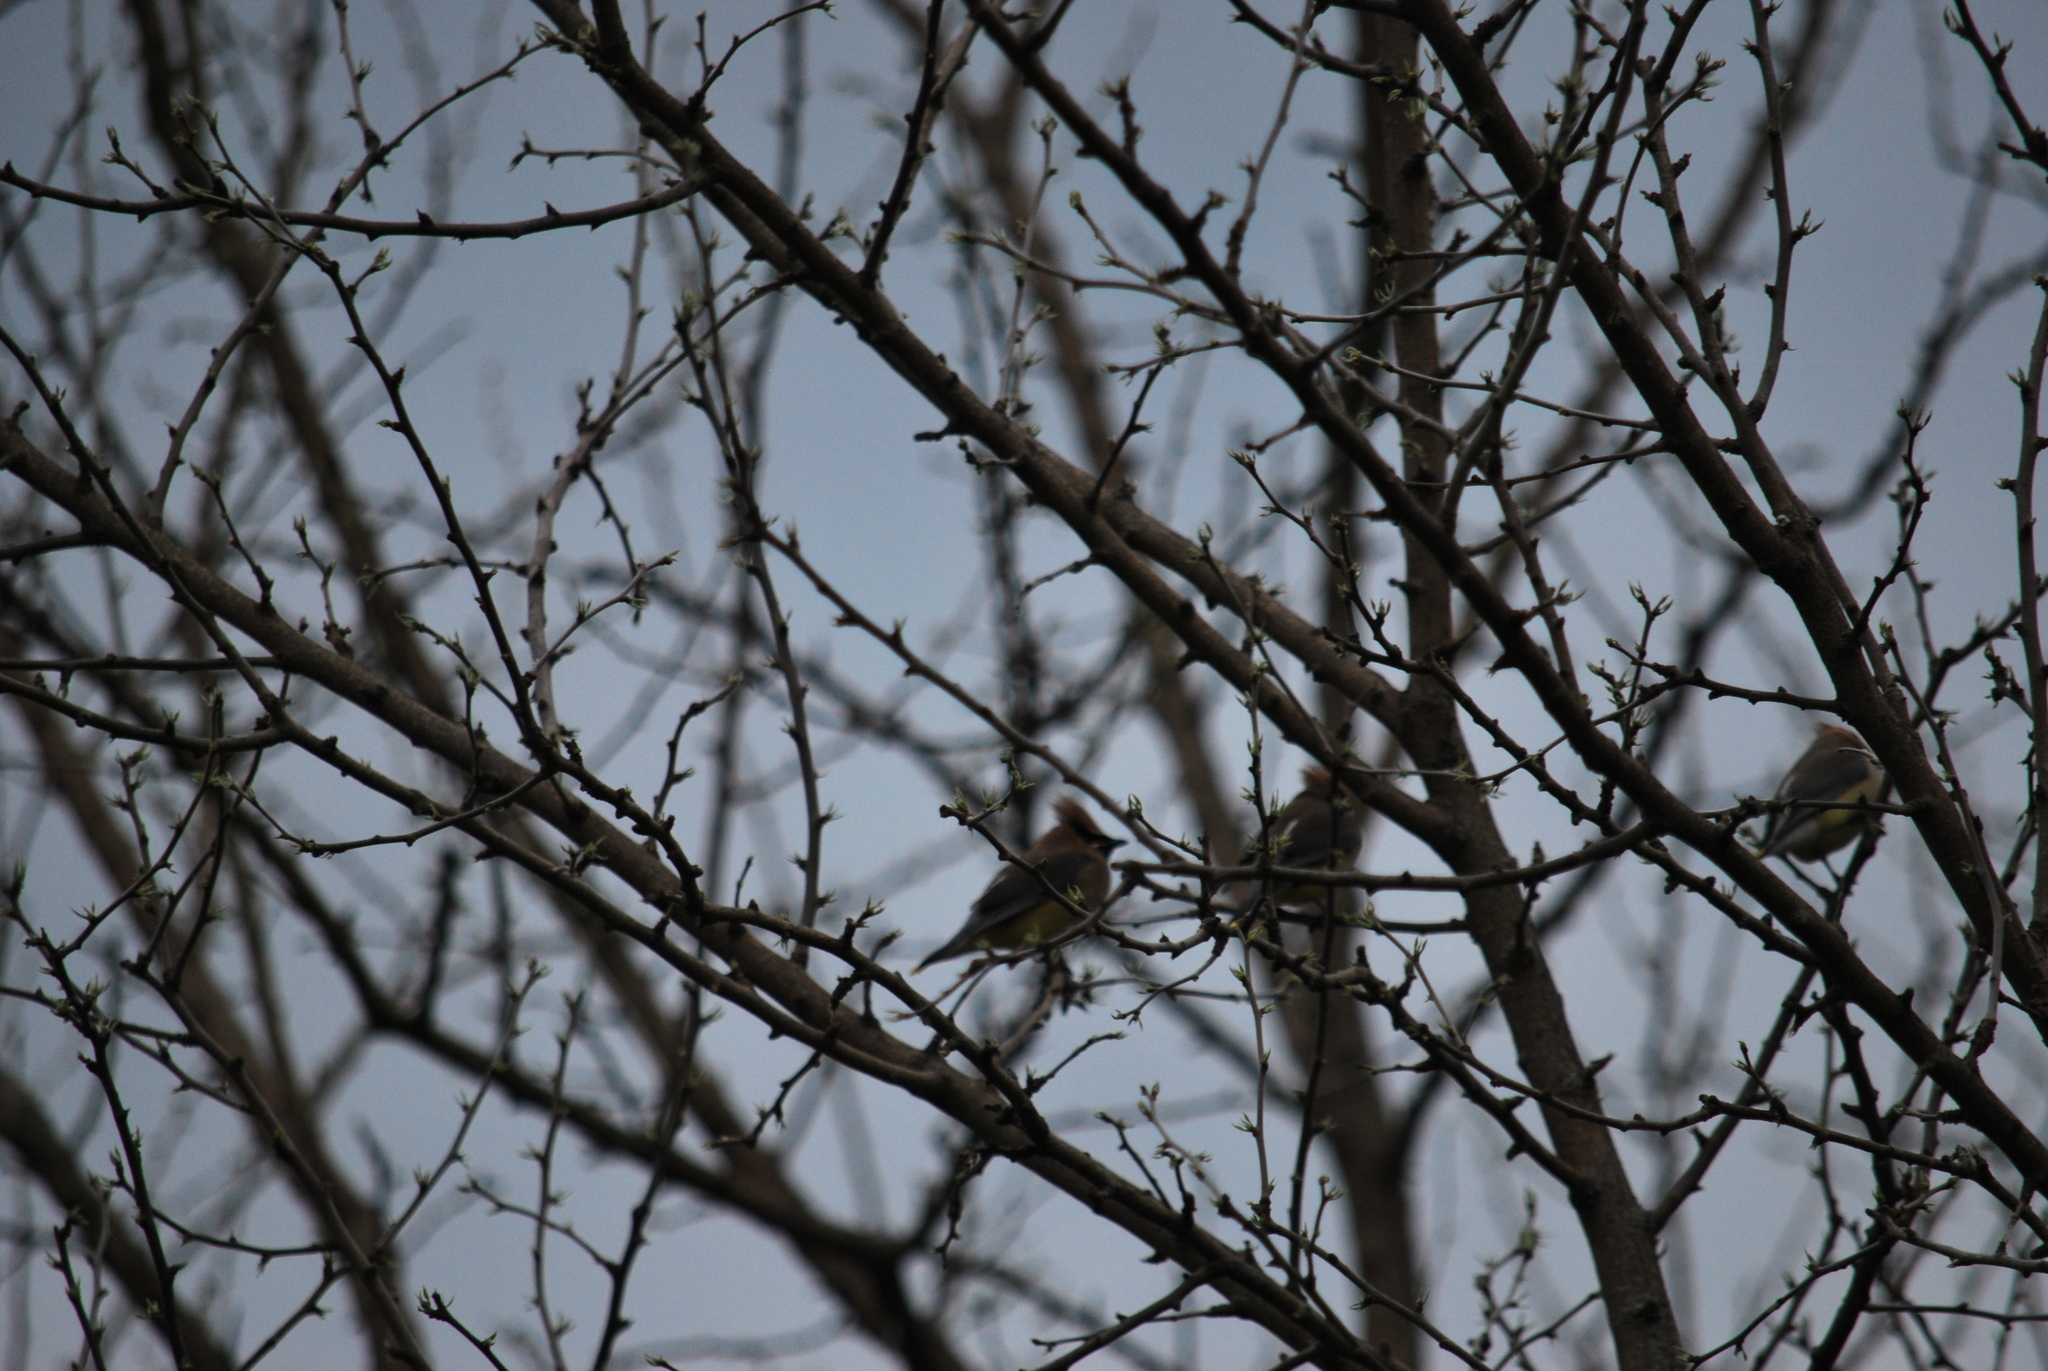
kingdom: Animalia
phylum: Chordata
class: Aves
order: Passeriformes
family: Bombycillidae
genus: Bombycilla
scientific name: Bombycilla cedrorum
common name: Cedar waxwing
